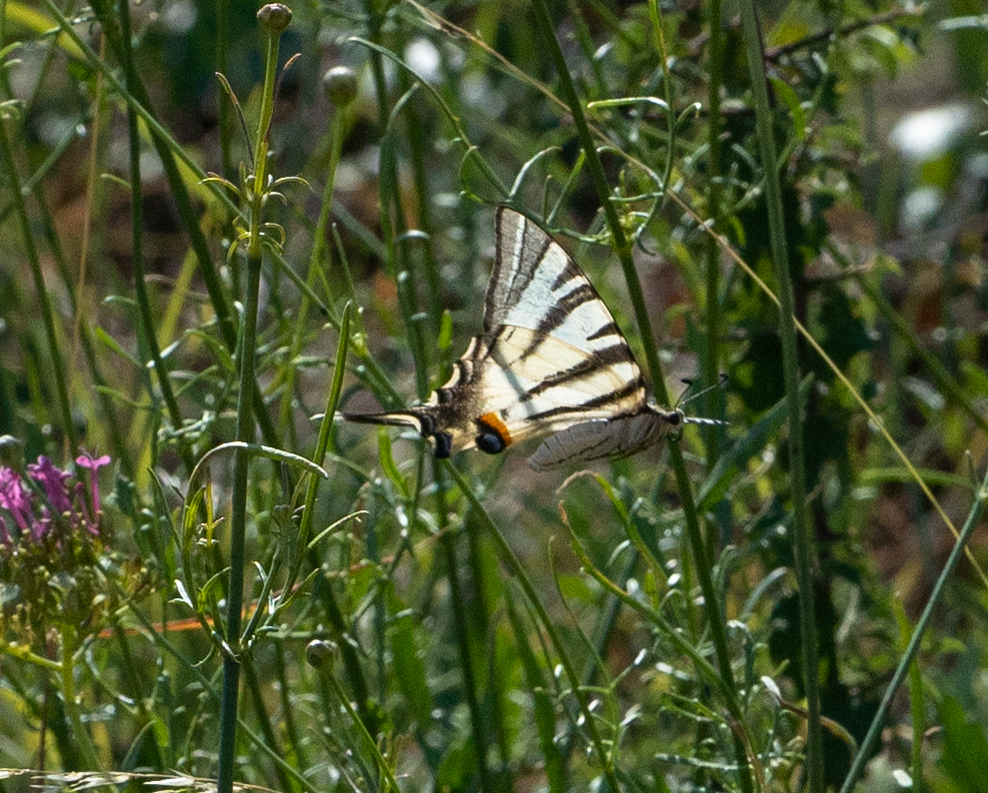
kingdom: Animalia
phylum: Arthropoda
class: Insecta
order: Lepidoptera
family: Papilionidae
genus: Iphiclides
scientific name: Iphiclides podalirius
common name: Scarce swallowtail
